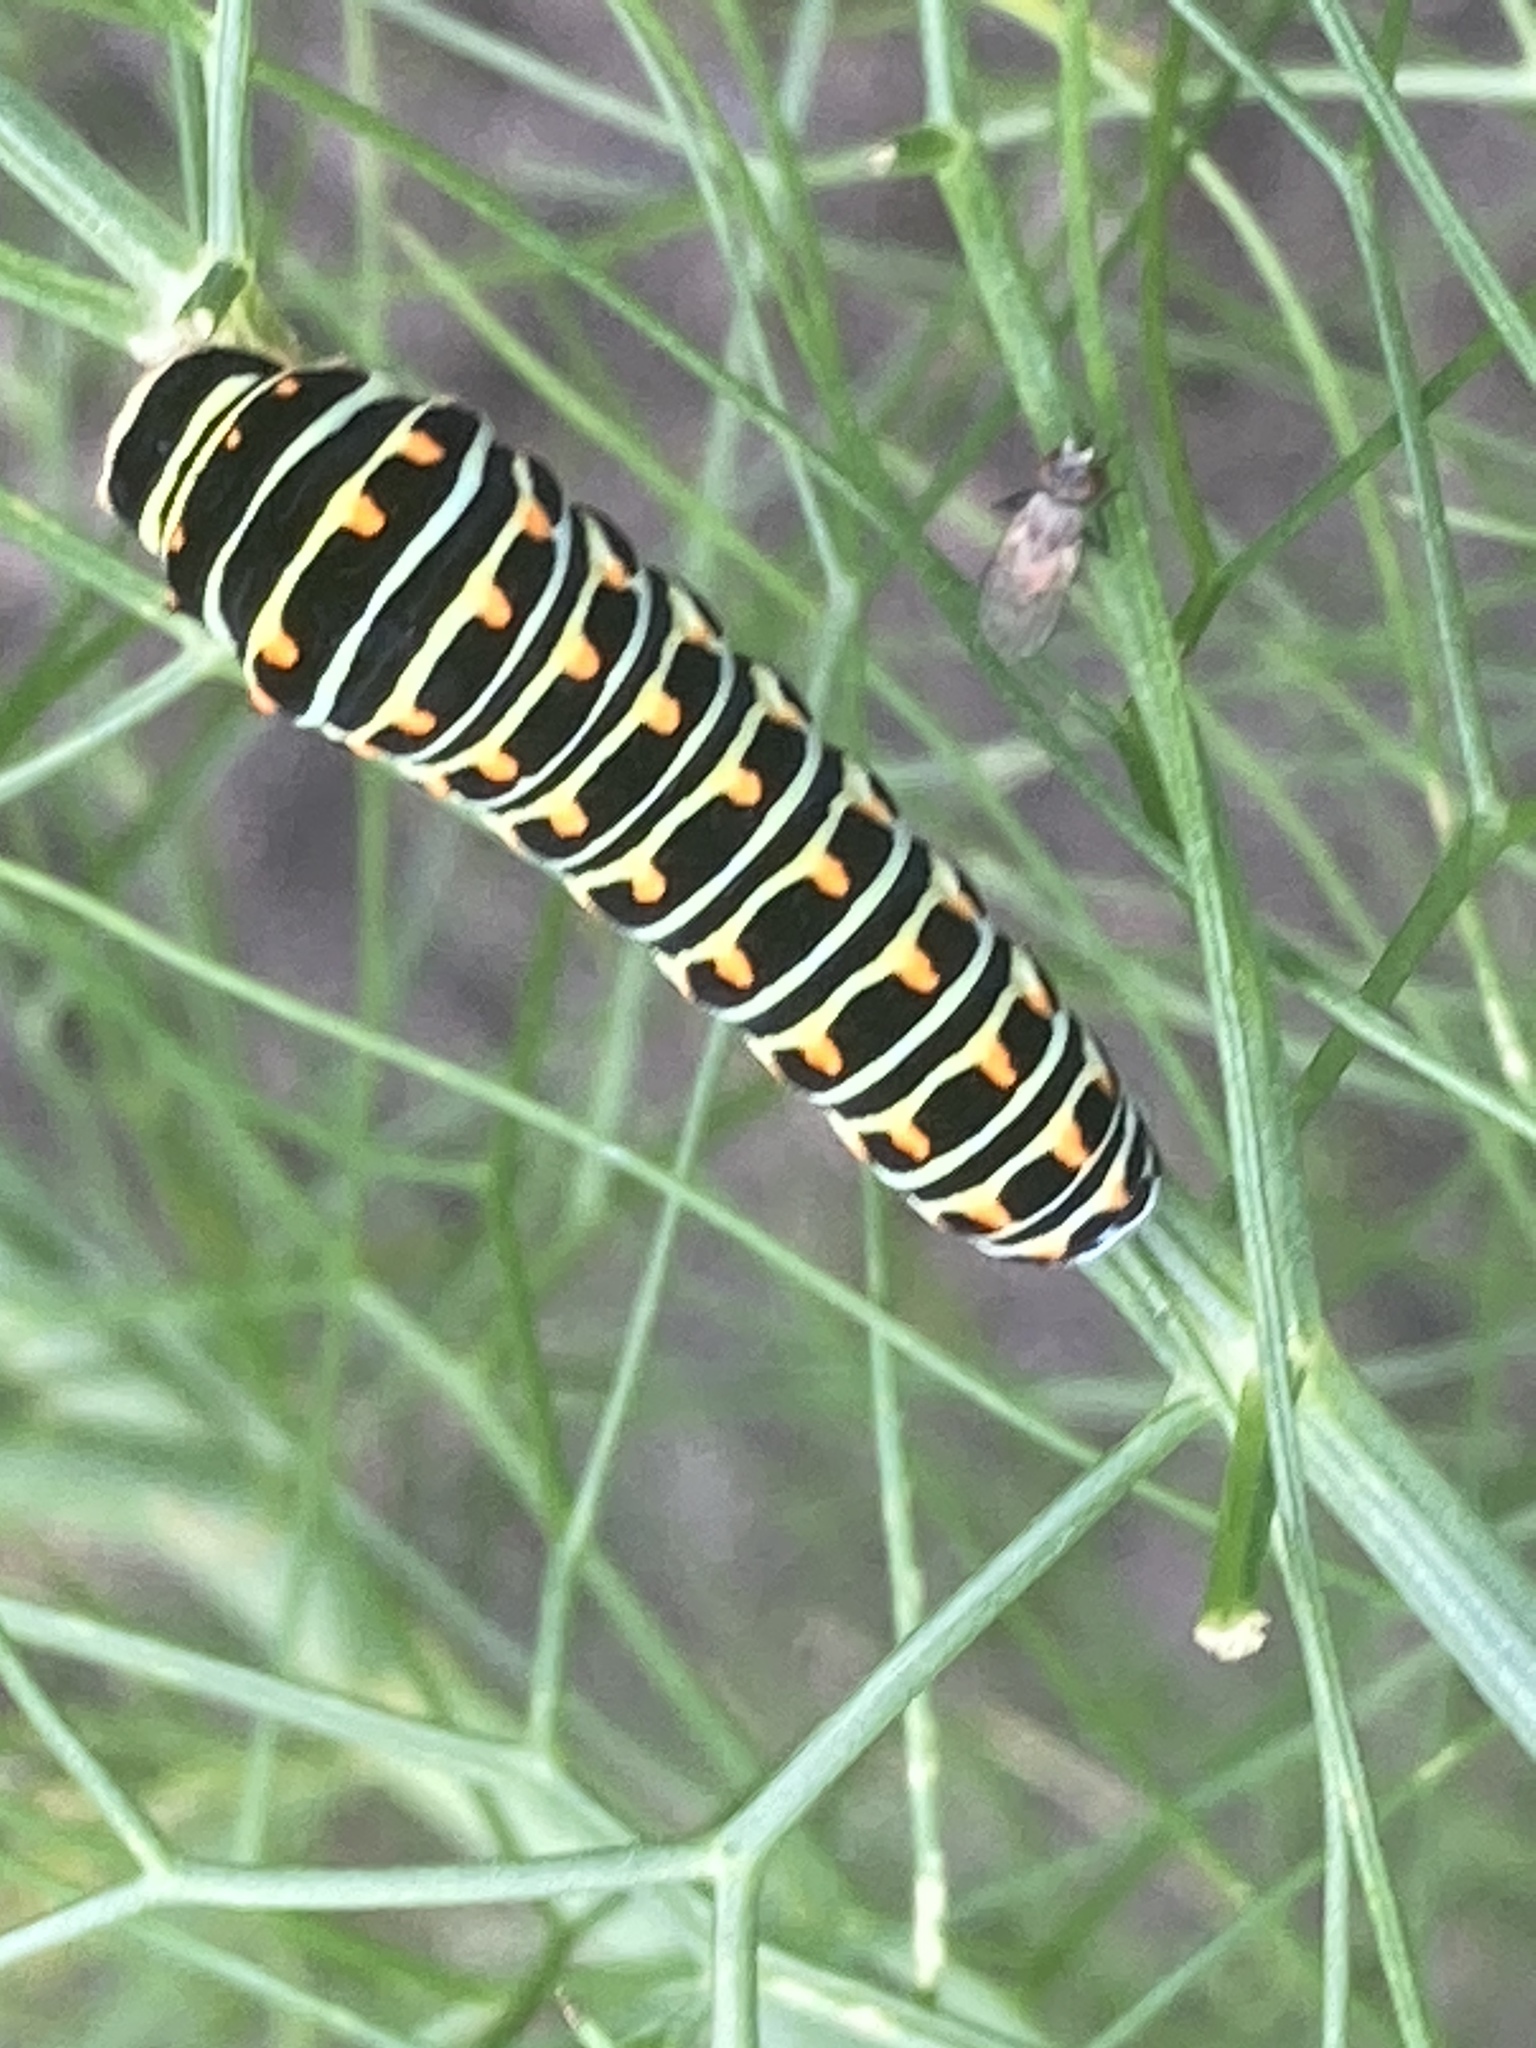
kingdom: Animalia
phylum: Arthropoda
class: Insecta
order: Lepidoptera
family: Papilionidae
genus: Papilio
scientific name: Papilio machaon
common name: Swallowtail
